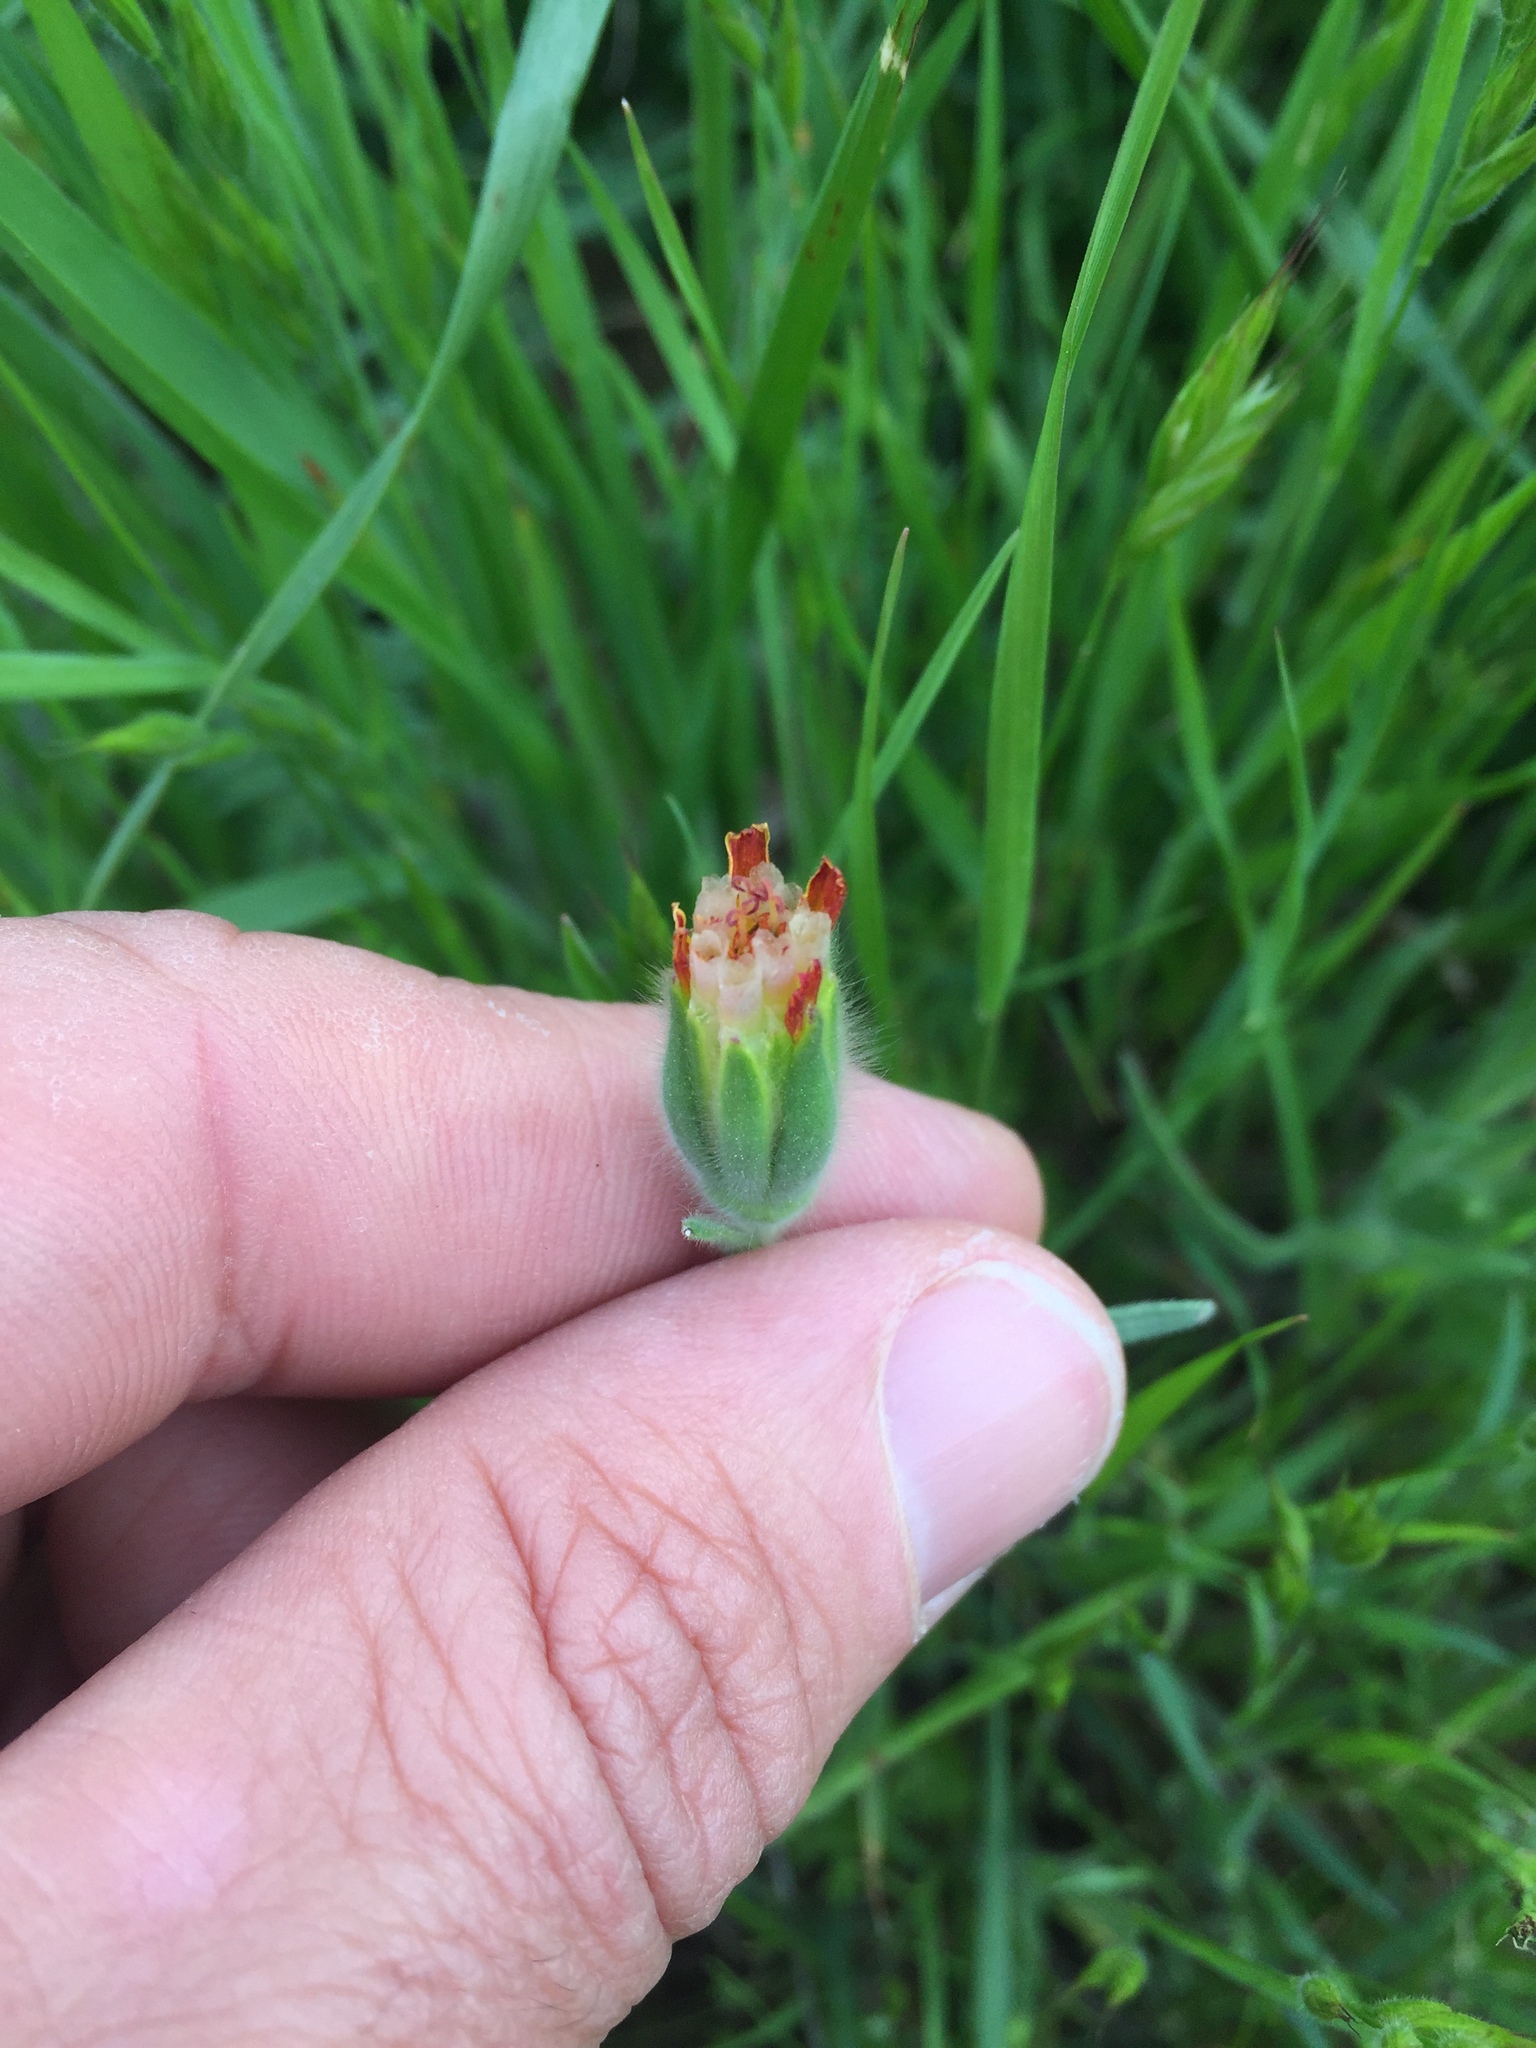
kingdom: Plantae
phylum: Tracheophyta
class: Magnoliopsida
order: Asterales
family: Asteraceae
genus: Achyrachaena
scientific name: Achyrachaena mollis
